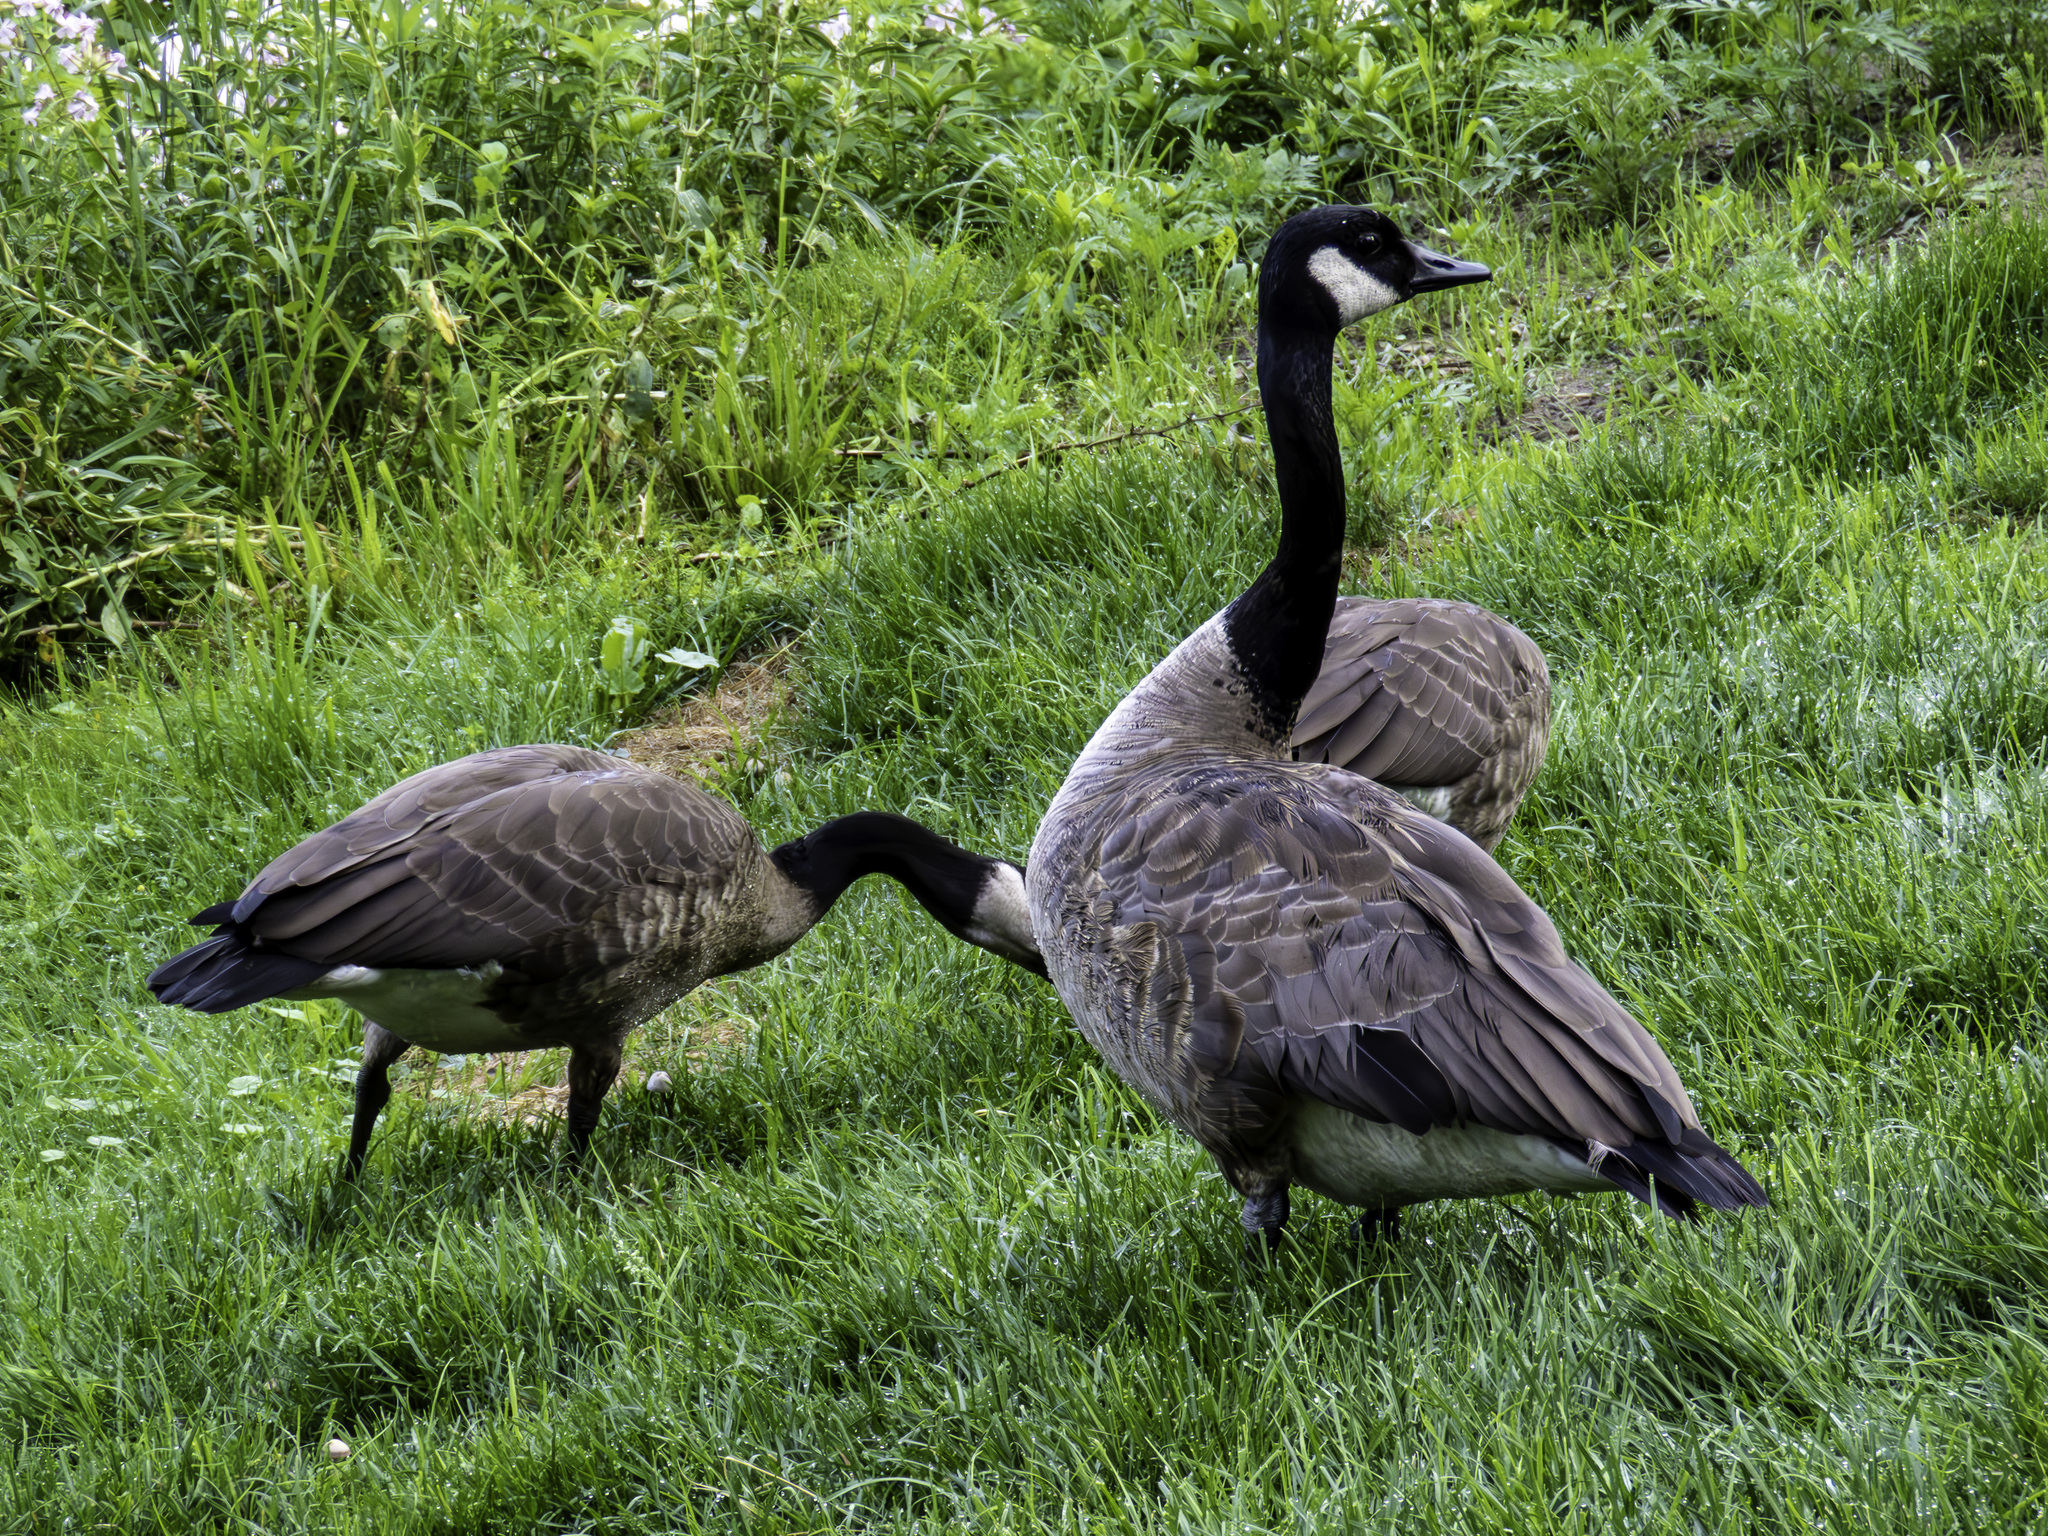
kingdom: Animalia
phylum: Chordata
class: Aves
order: Anseriformes
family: Anatidae
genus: Branta
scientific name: Branta canadensis
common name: Canada goose
